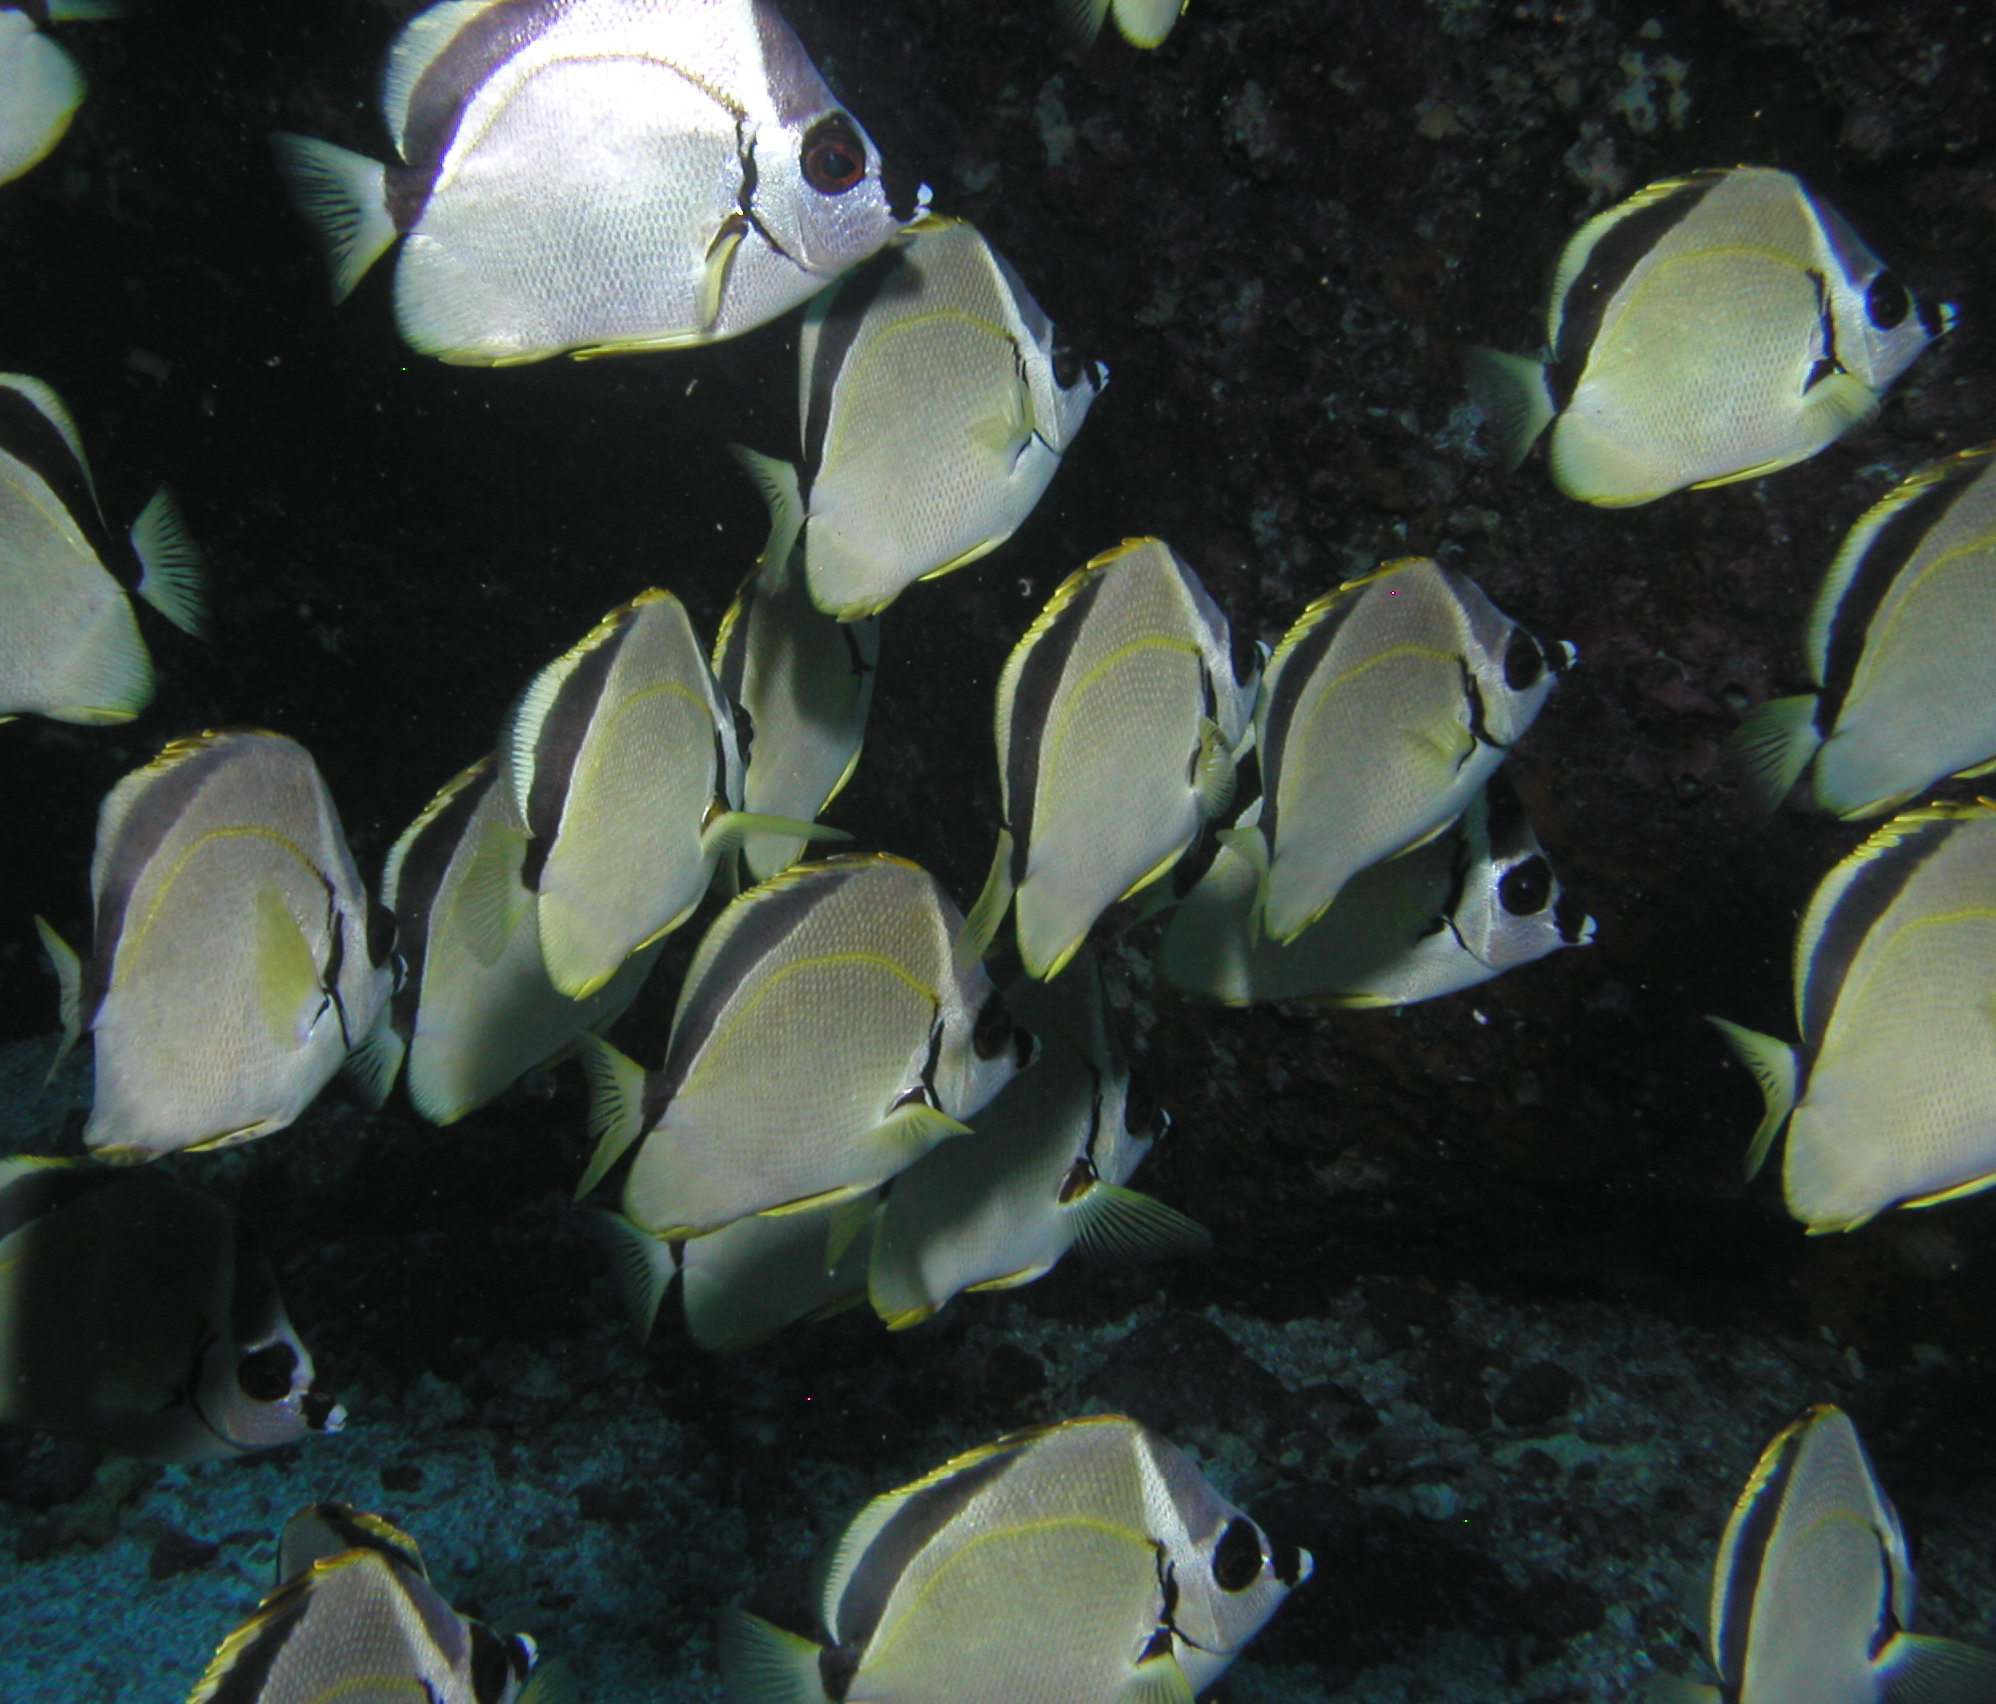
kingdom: Animalia
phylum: Chordata
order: Perciformes
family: Chaetodontidae
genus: Johnrandallia
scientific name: Johnrandallia nigrirostris
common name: Barberfish
